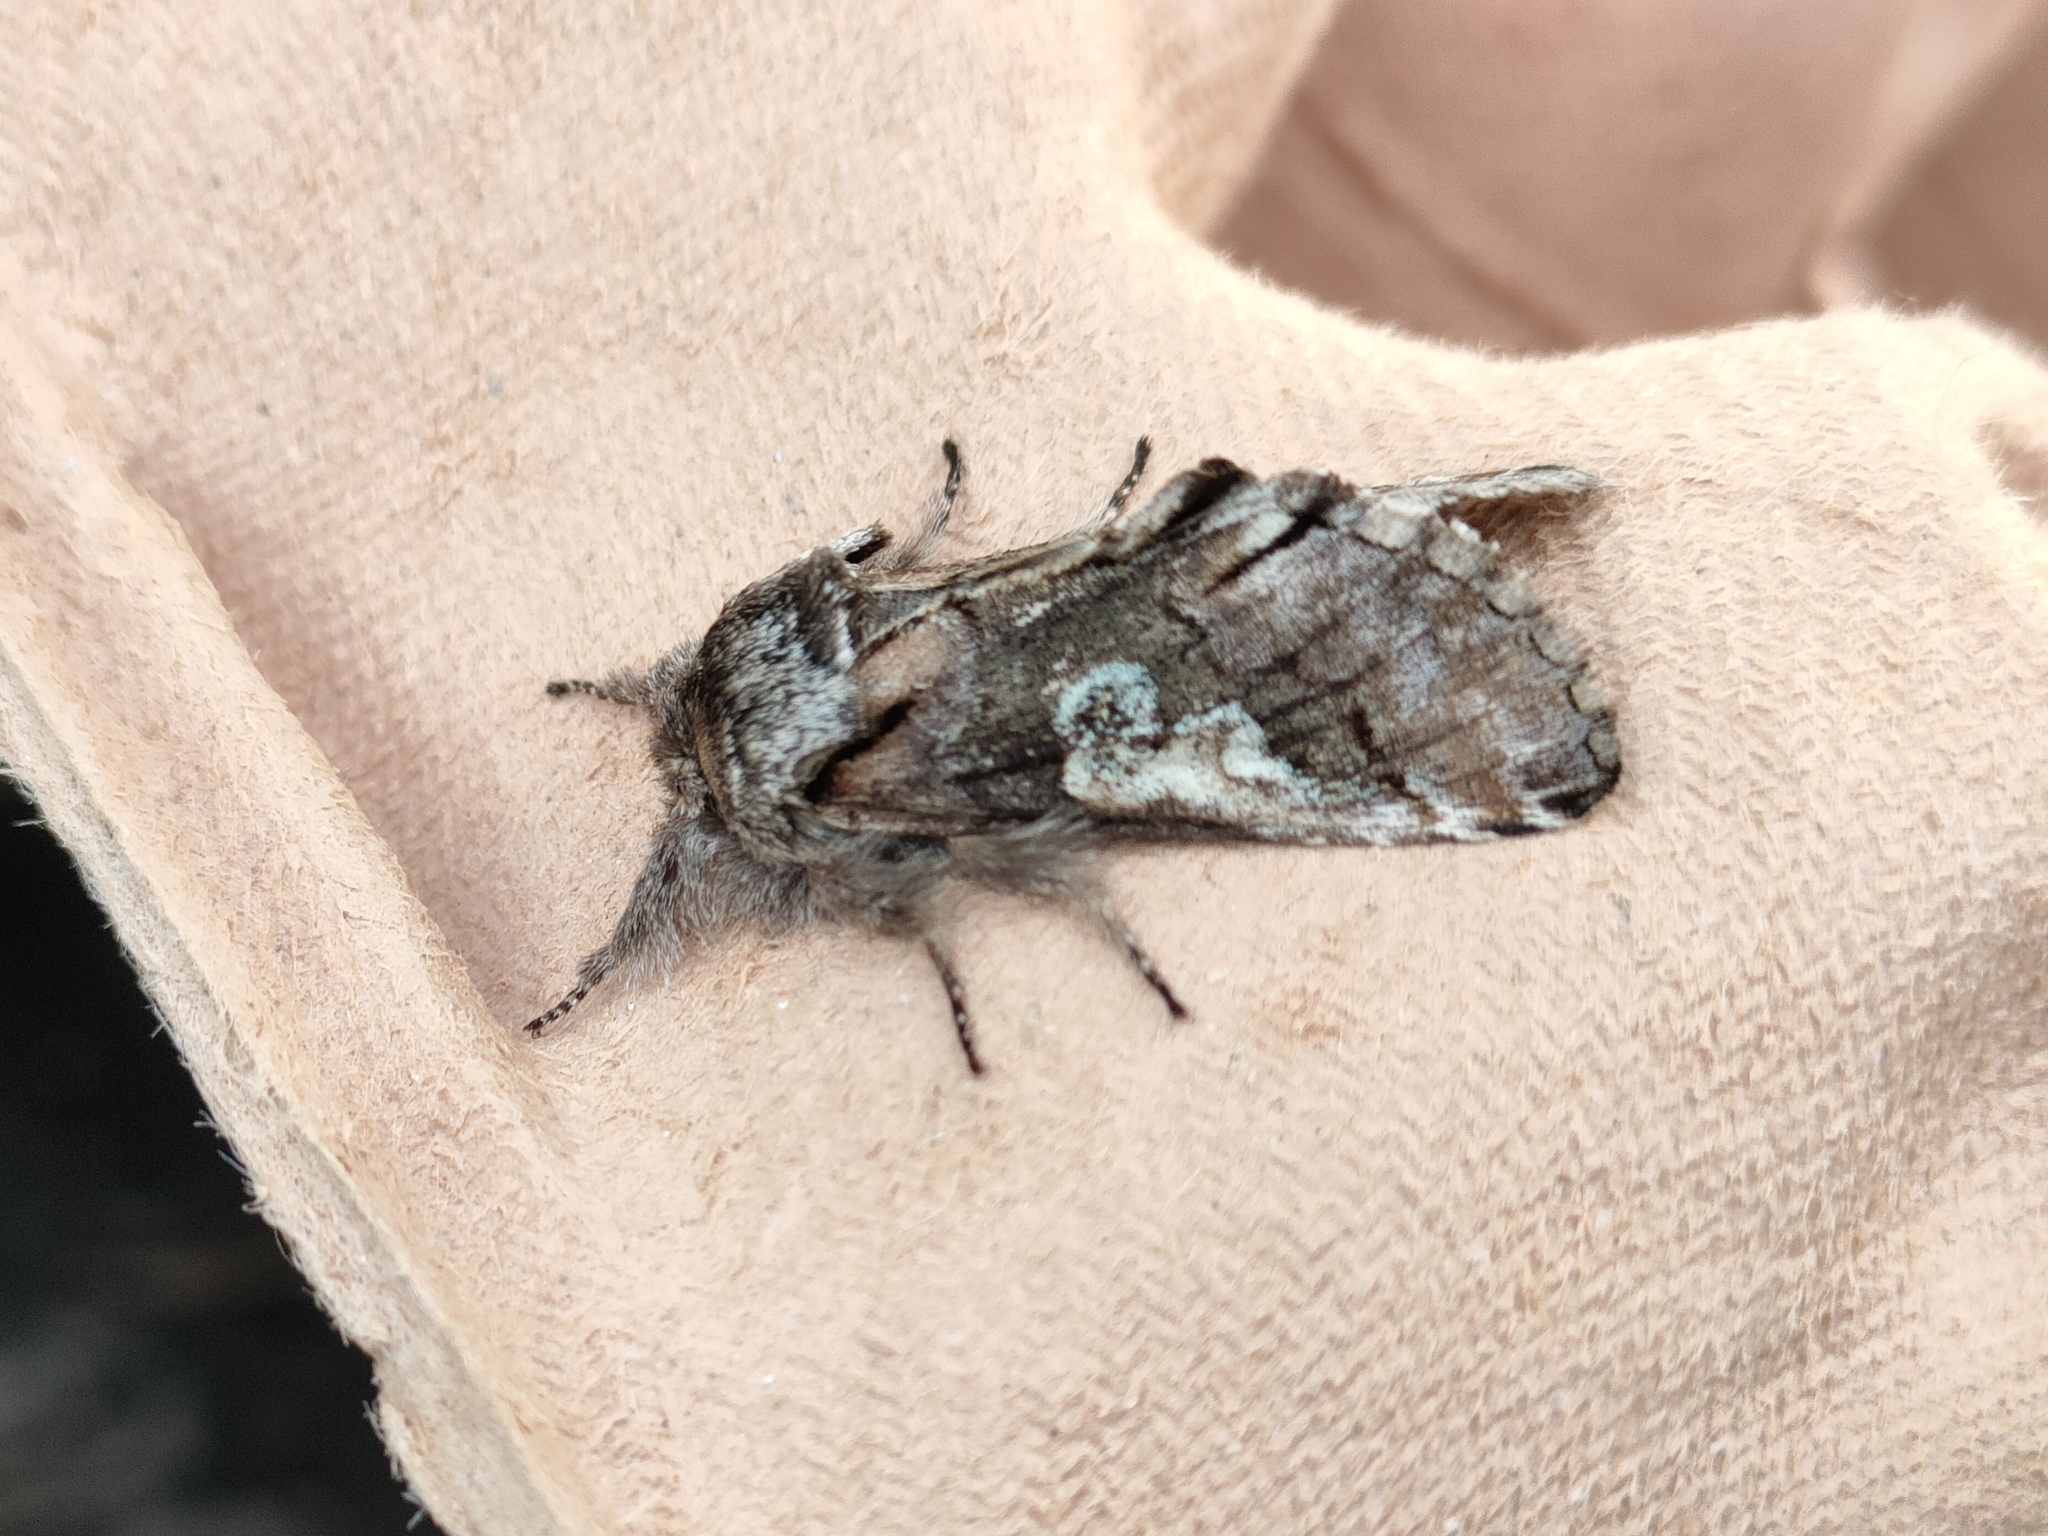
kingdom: Animalia
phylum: Arthropoda
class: Insecta
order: Lepidoptera
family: Noctuidae
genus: Diloba
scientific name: Diloba caeruleocephala
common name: Figure of eight
